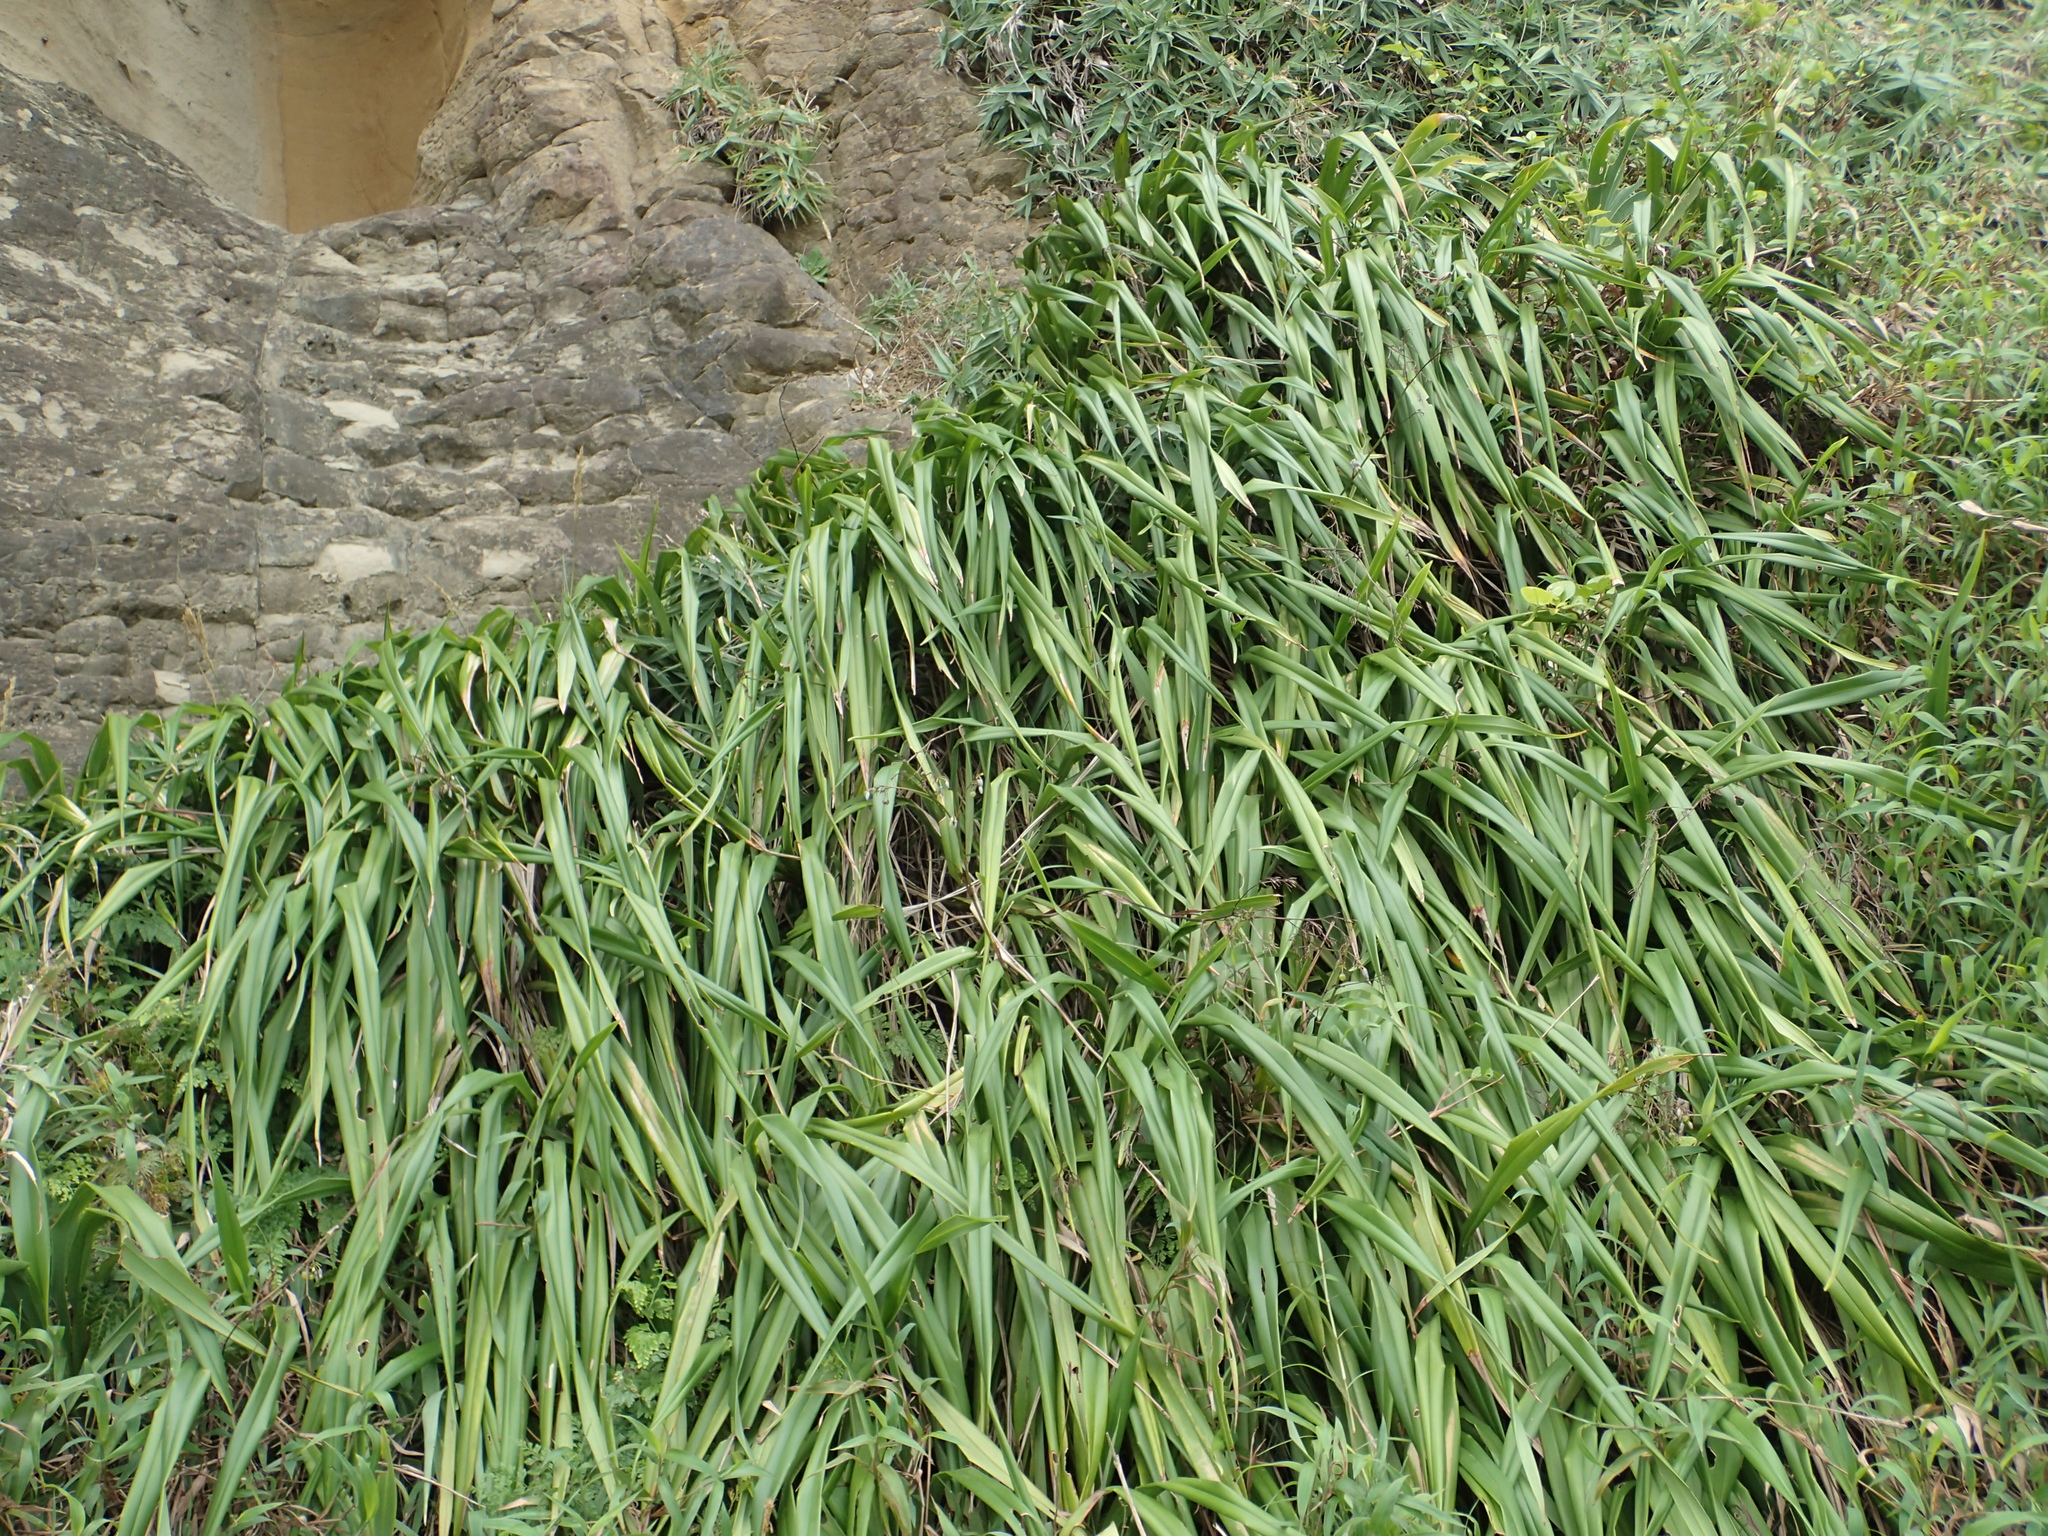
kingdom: Plantae
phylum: Tracheophyta
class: Liliopsida
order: Asparagales
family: Asphodelaceae
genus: Dianella
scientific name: Dianella ensifolia
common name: New zealand lilyplant
